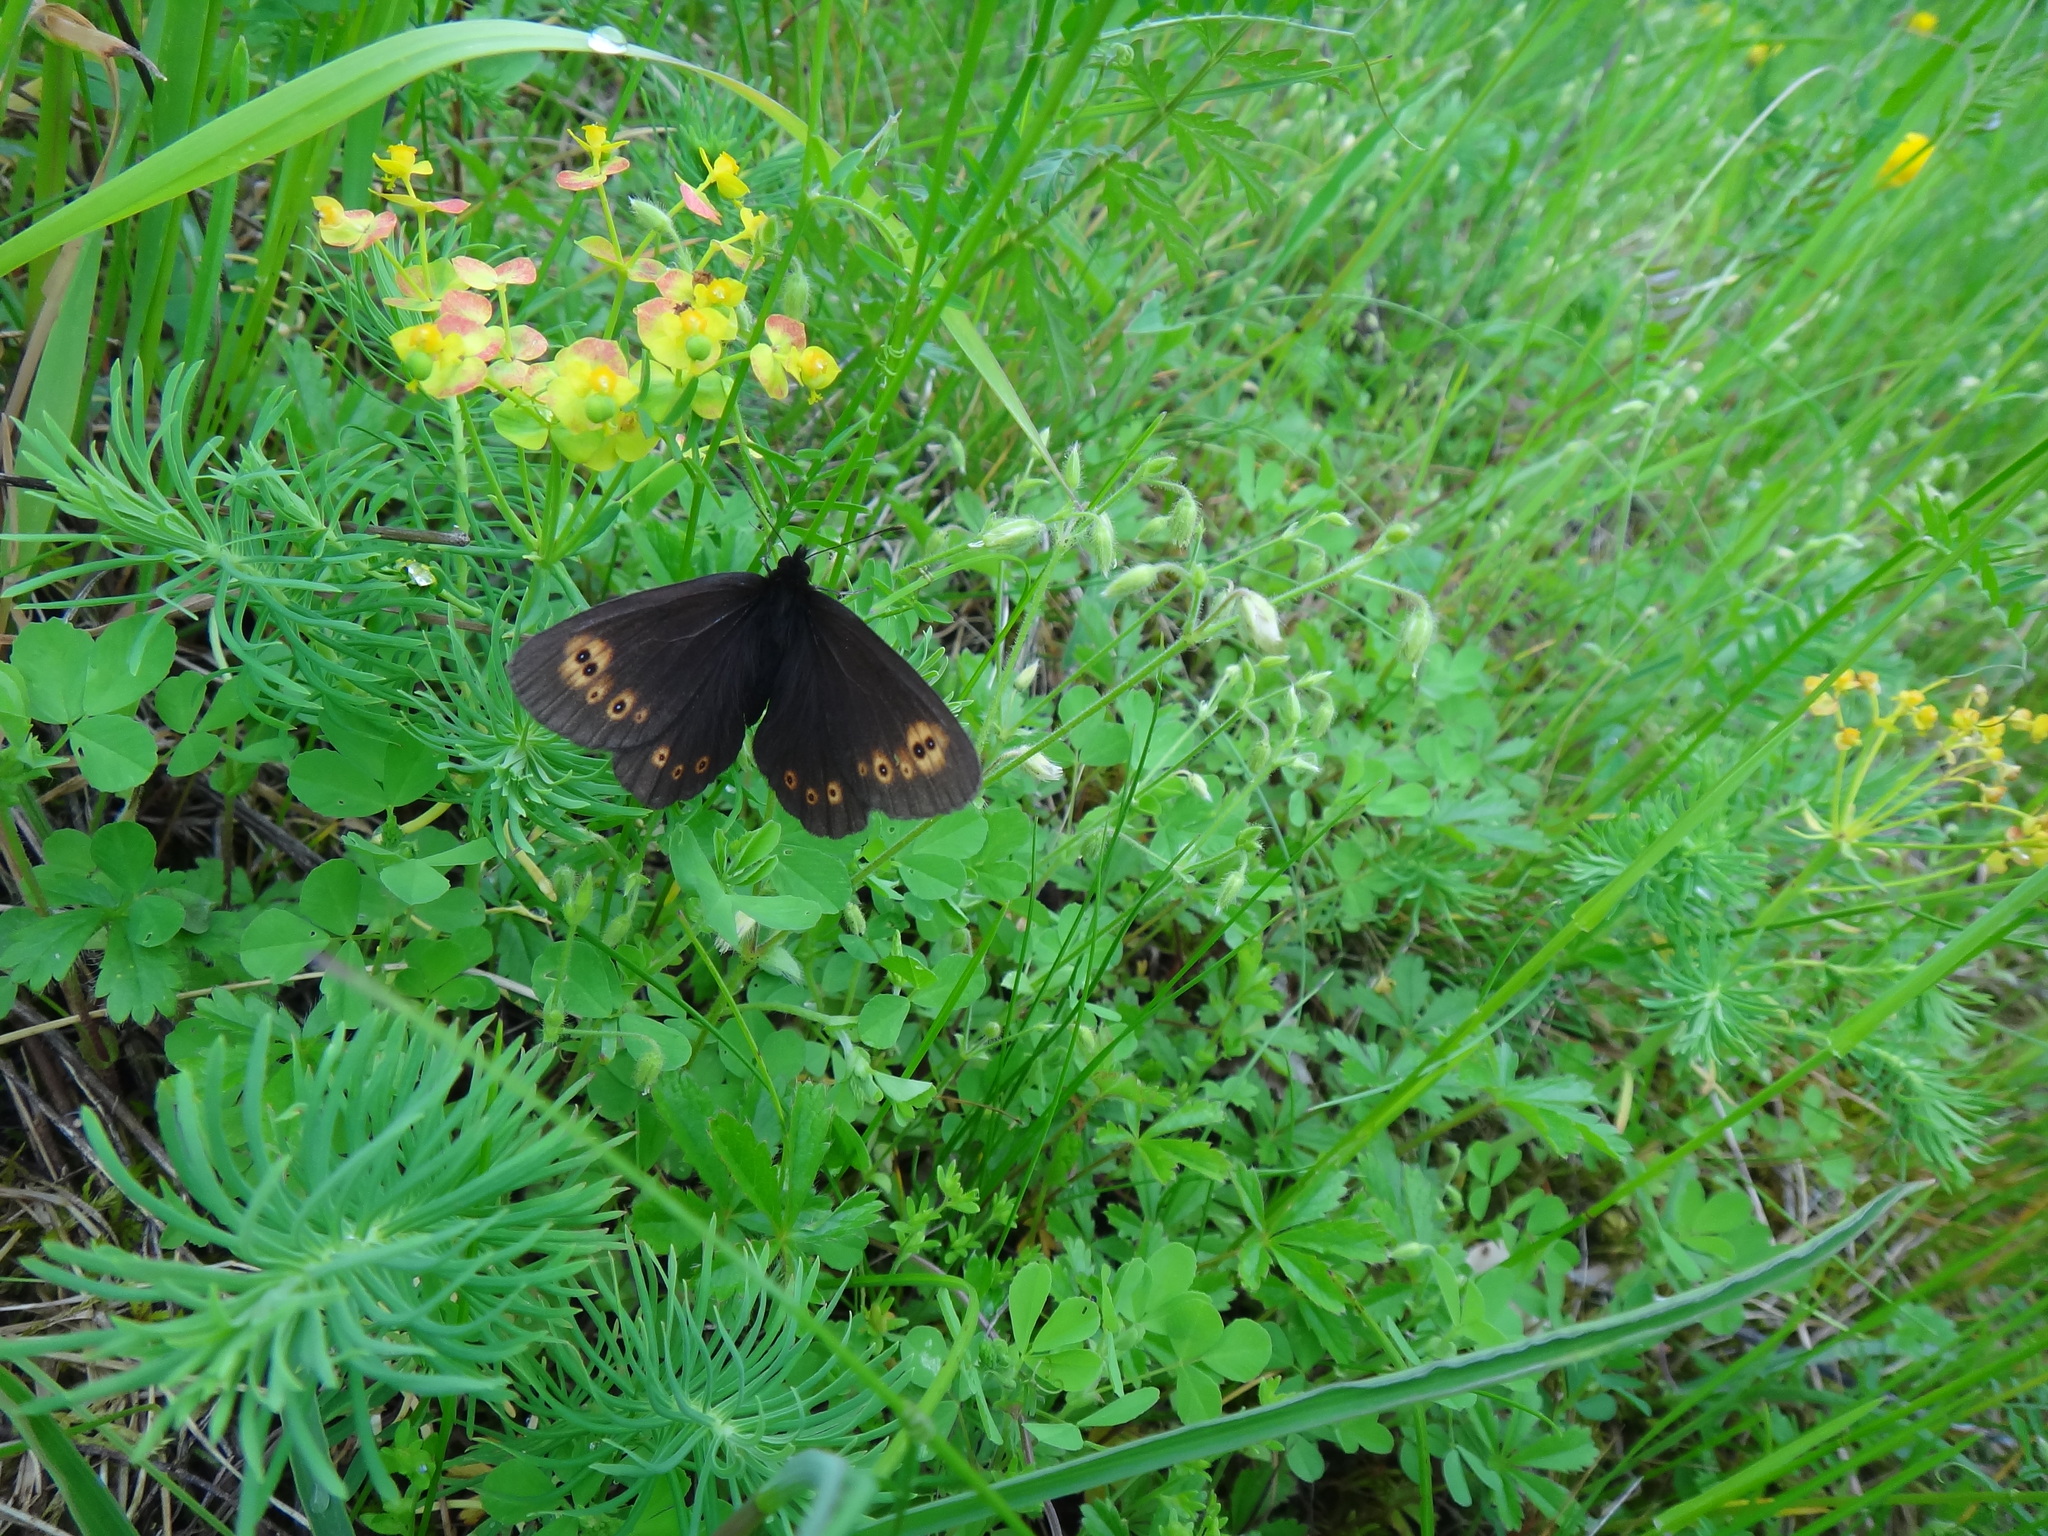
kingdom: Animalia
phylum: Arthropoda
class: Insecta
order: Lepidoptera
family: Nymphalidae
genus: Erebia
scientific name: Erebia medusa
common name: Woodland ringlet
